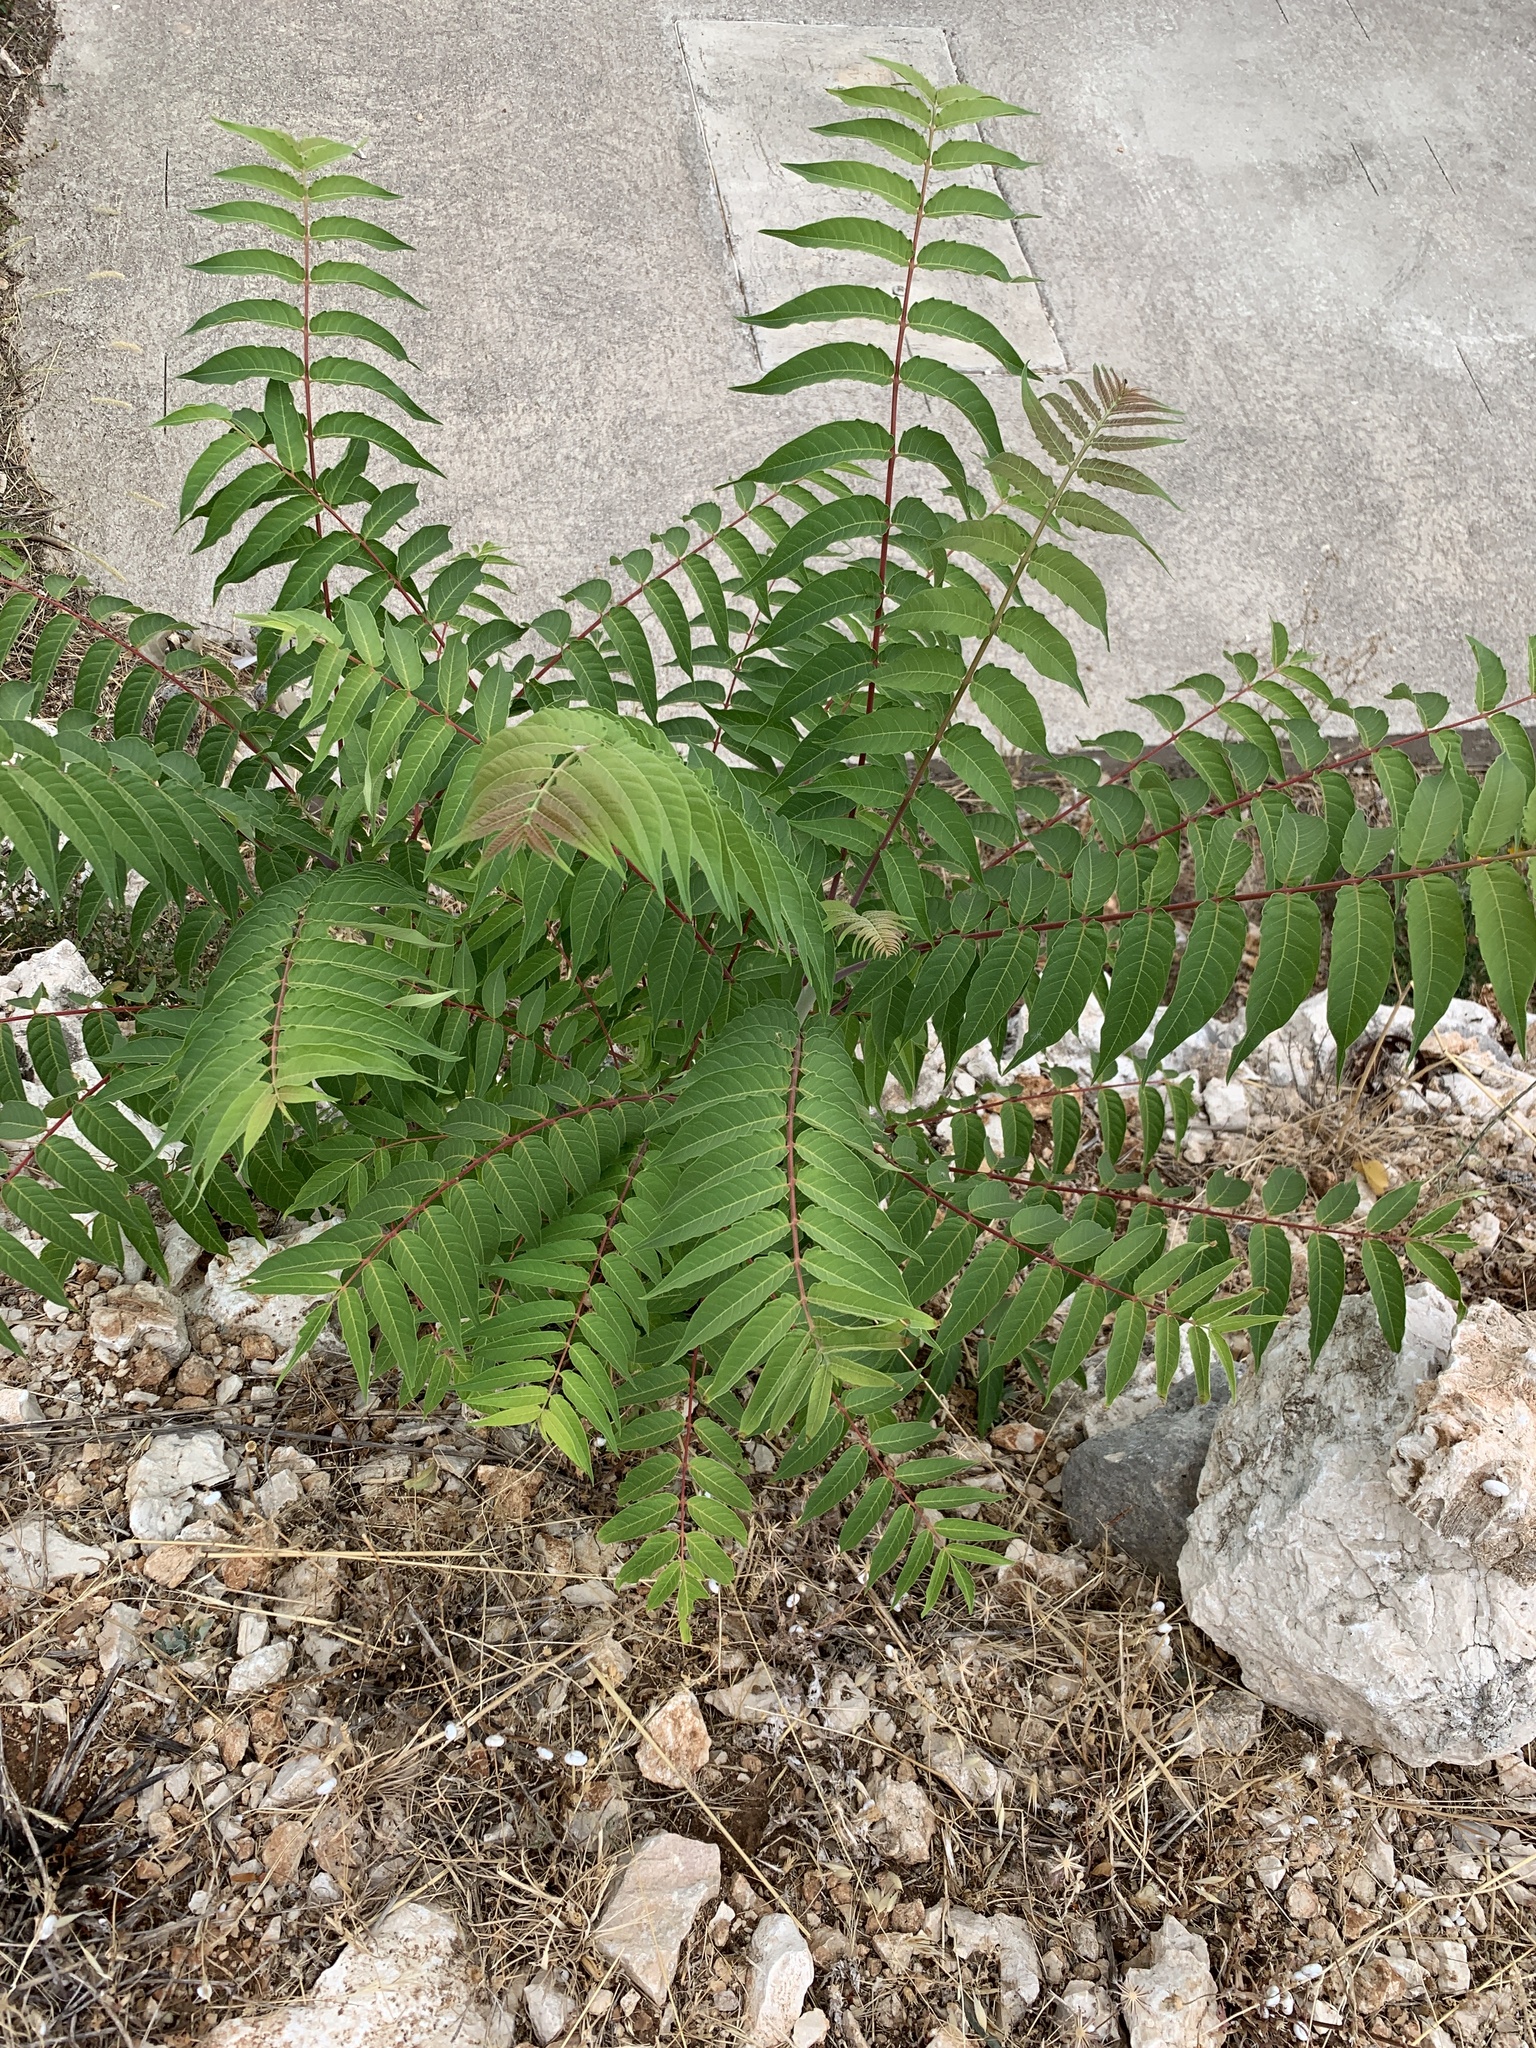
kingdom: Plantae
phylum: Tracheophyta
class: Magnoliopsida
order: Sapindales
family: Simaroubaceae
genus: Ailanthus
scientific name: Ailanthus altissima
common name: Tree-of-heaven
